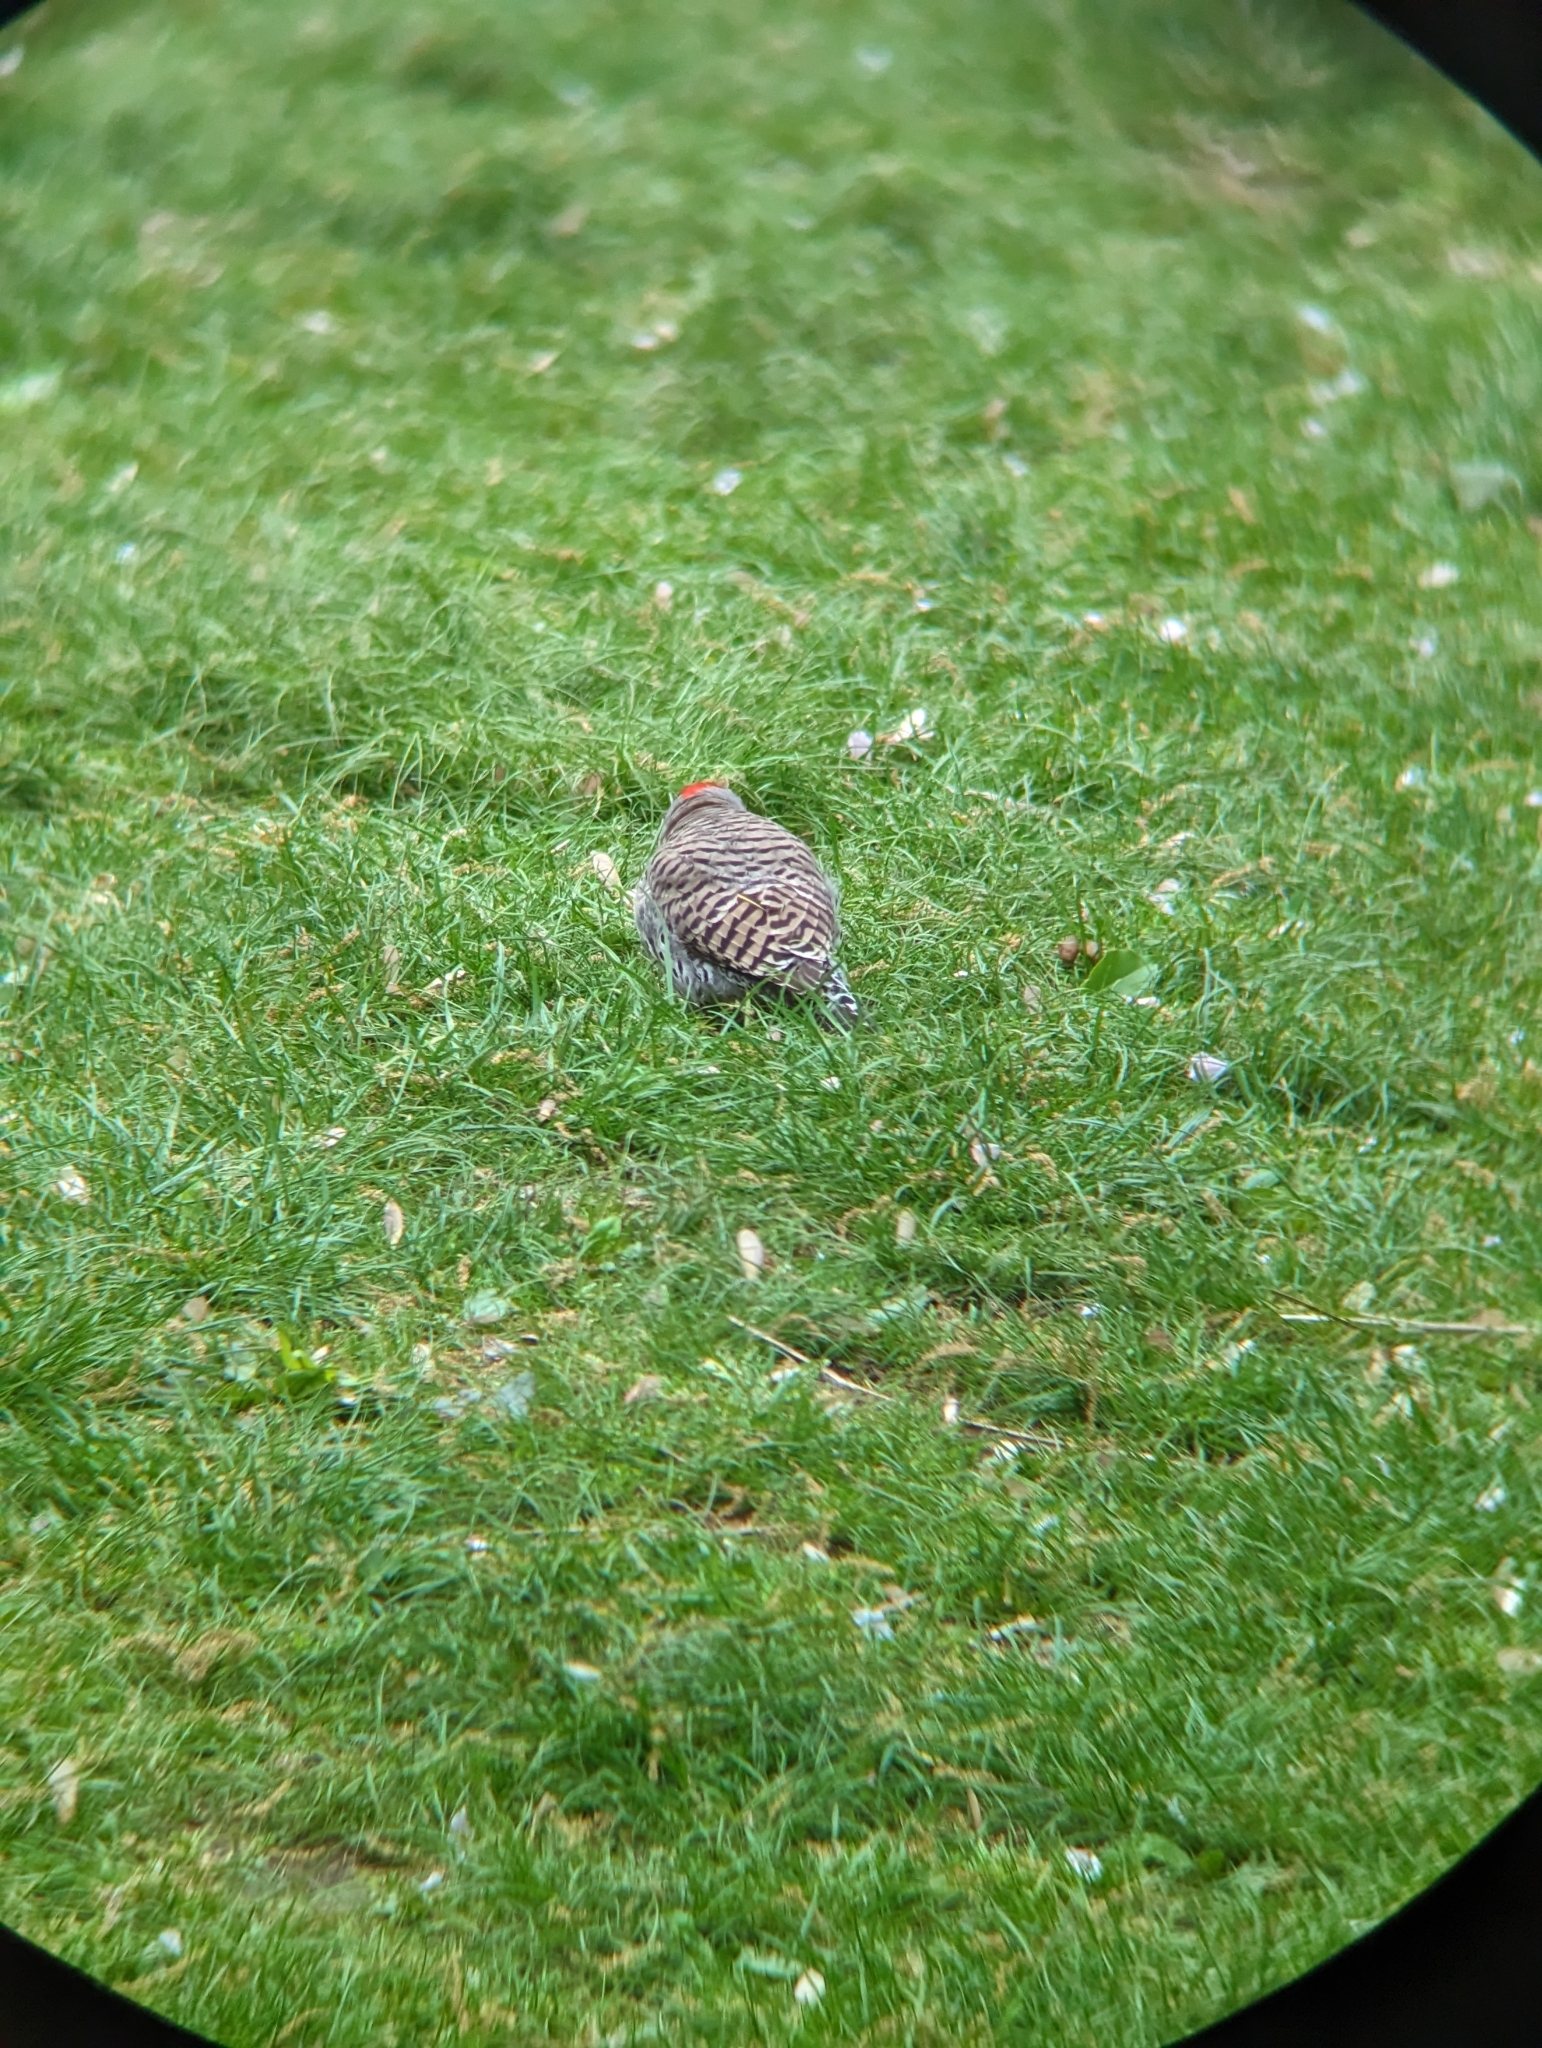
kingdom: Animalia
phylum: Chordata
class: Aves
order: Piciformes
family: Picidae
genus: Colaptes
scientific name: Colaptes auratus
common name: Northern flicker
